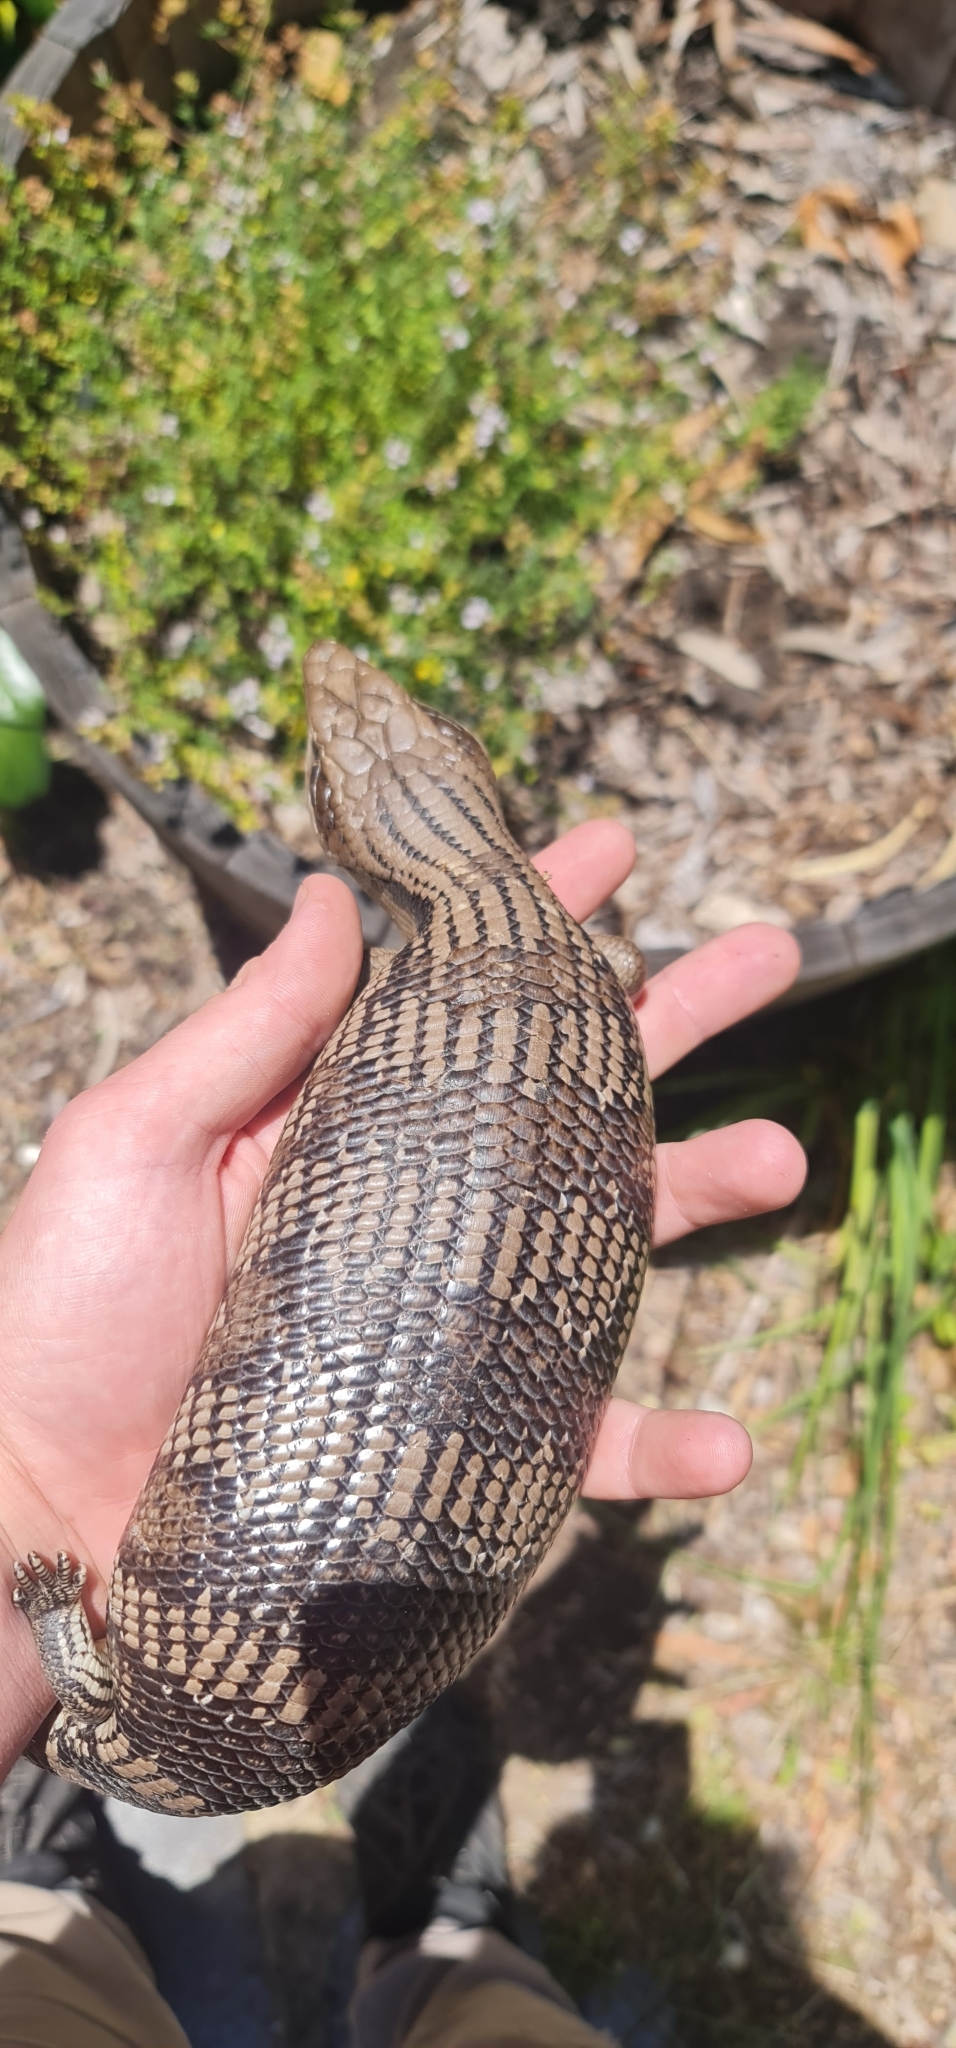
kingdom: Animalia
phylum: Chordata
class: Squamata
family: Scincidae
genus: Tiliqua
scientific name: Tiliqua scincoides
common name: Common bluetongue
